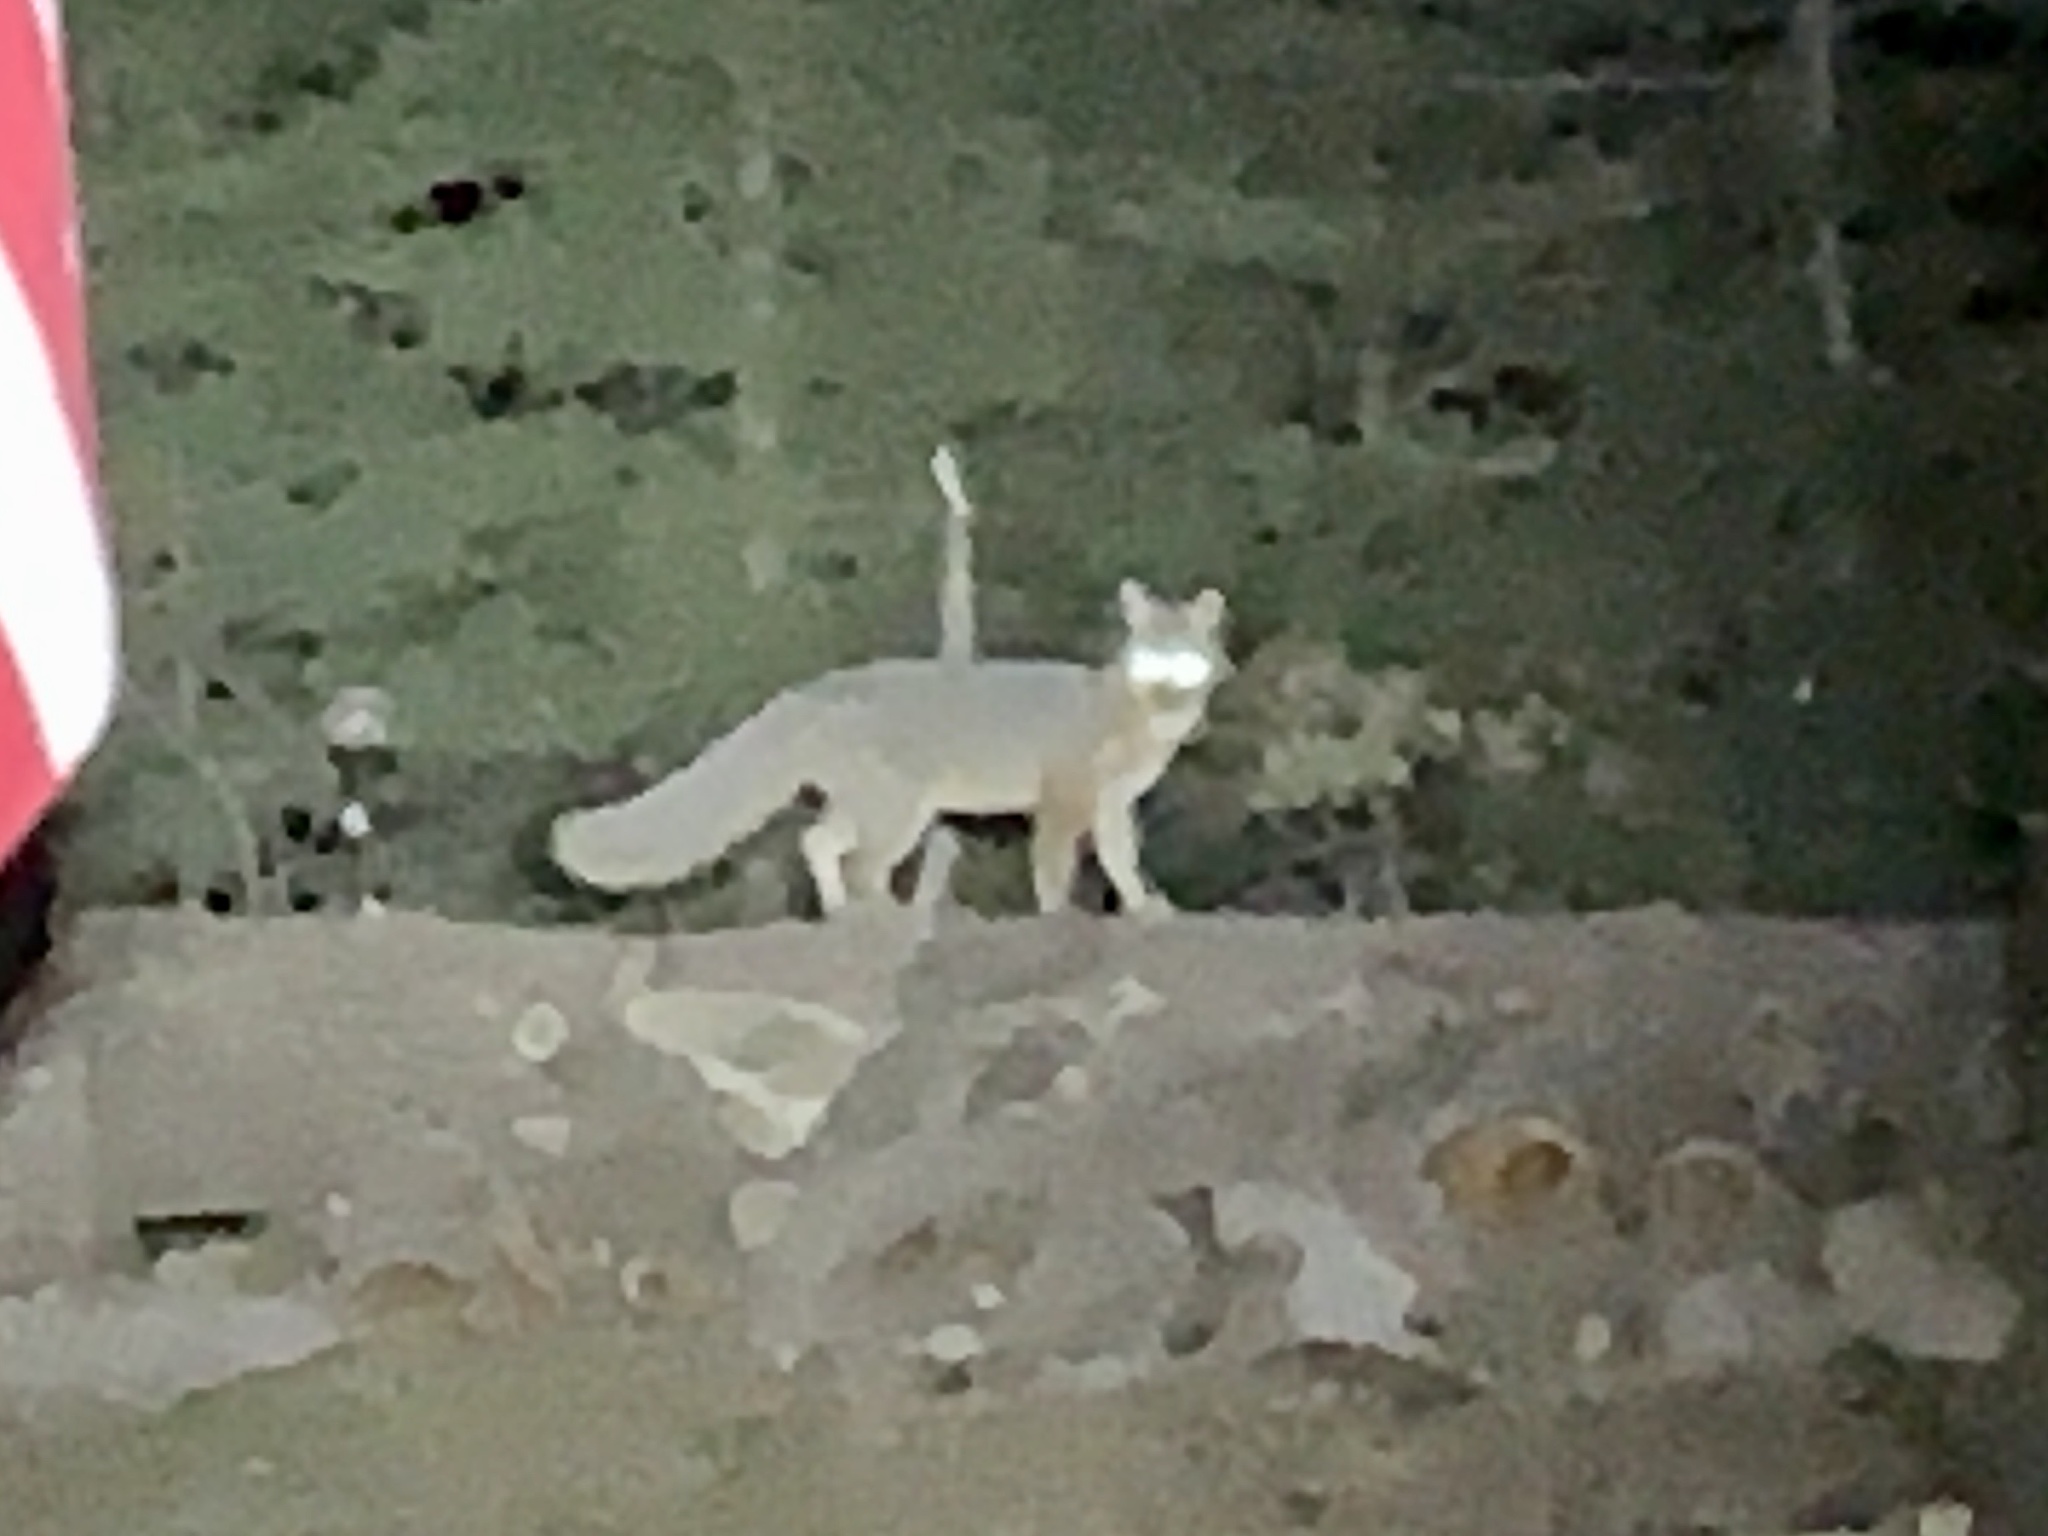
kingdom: Animalia
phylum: Chordata
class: Mammalia
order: Carnivora
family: Canidae
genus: Urocyon
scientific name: Urocyon cinereoargenteus
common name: Gray fox
